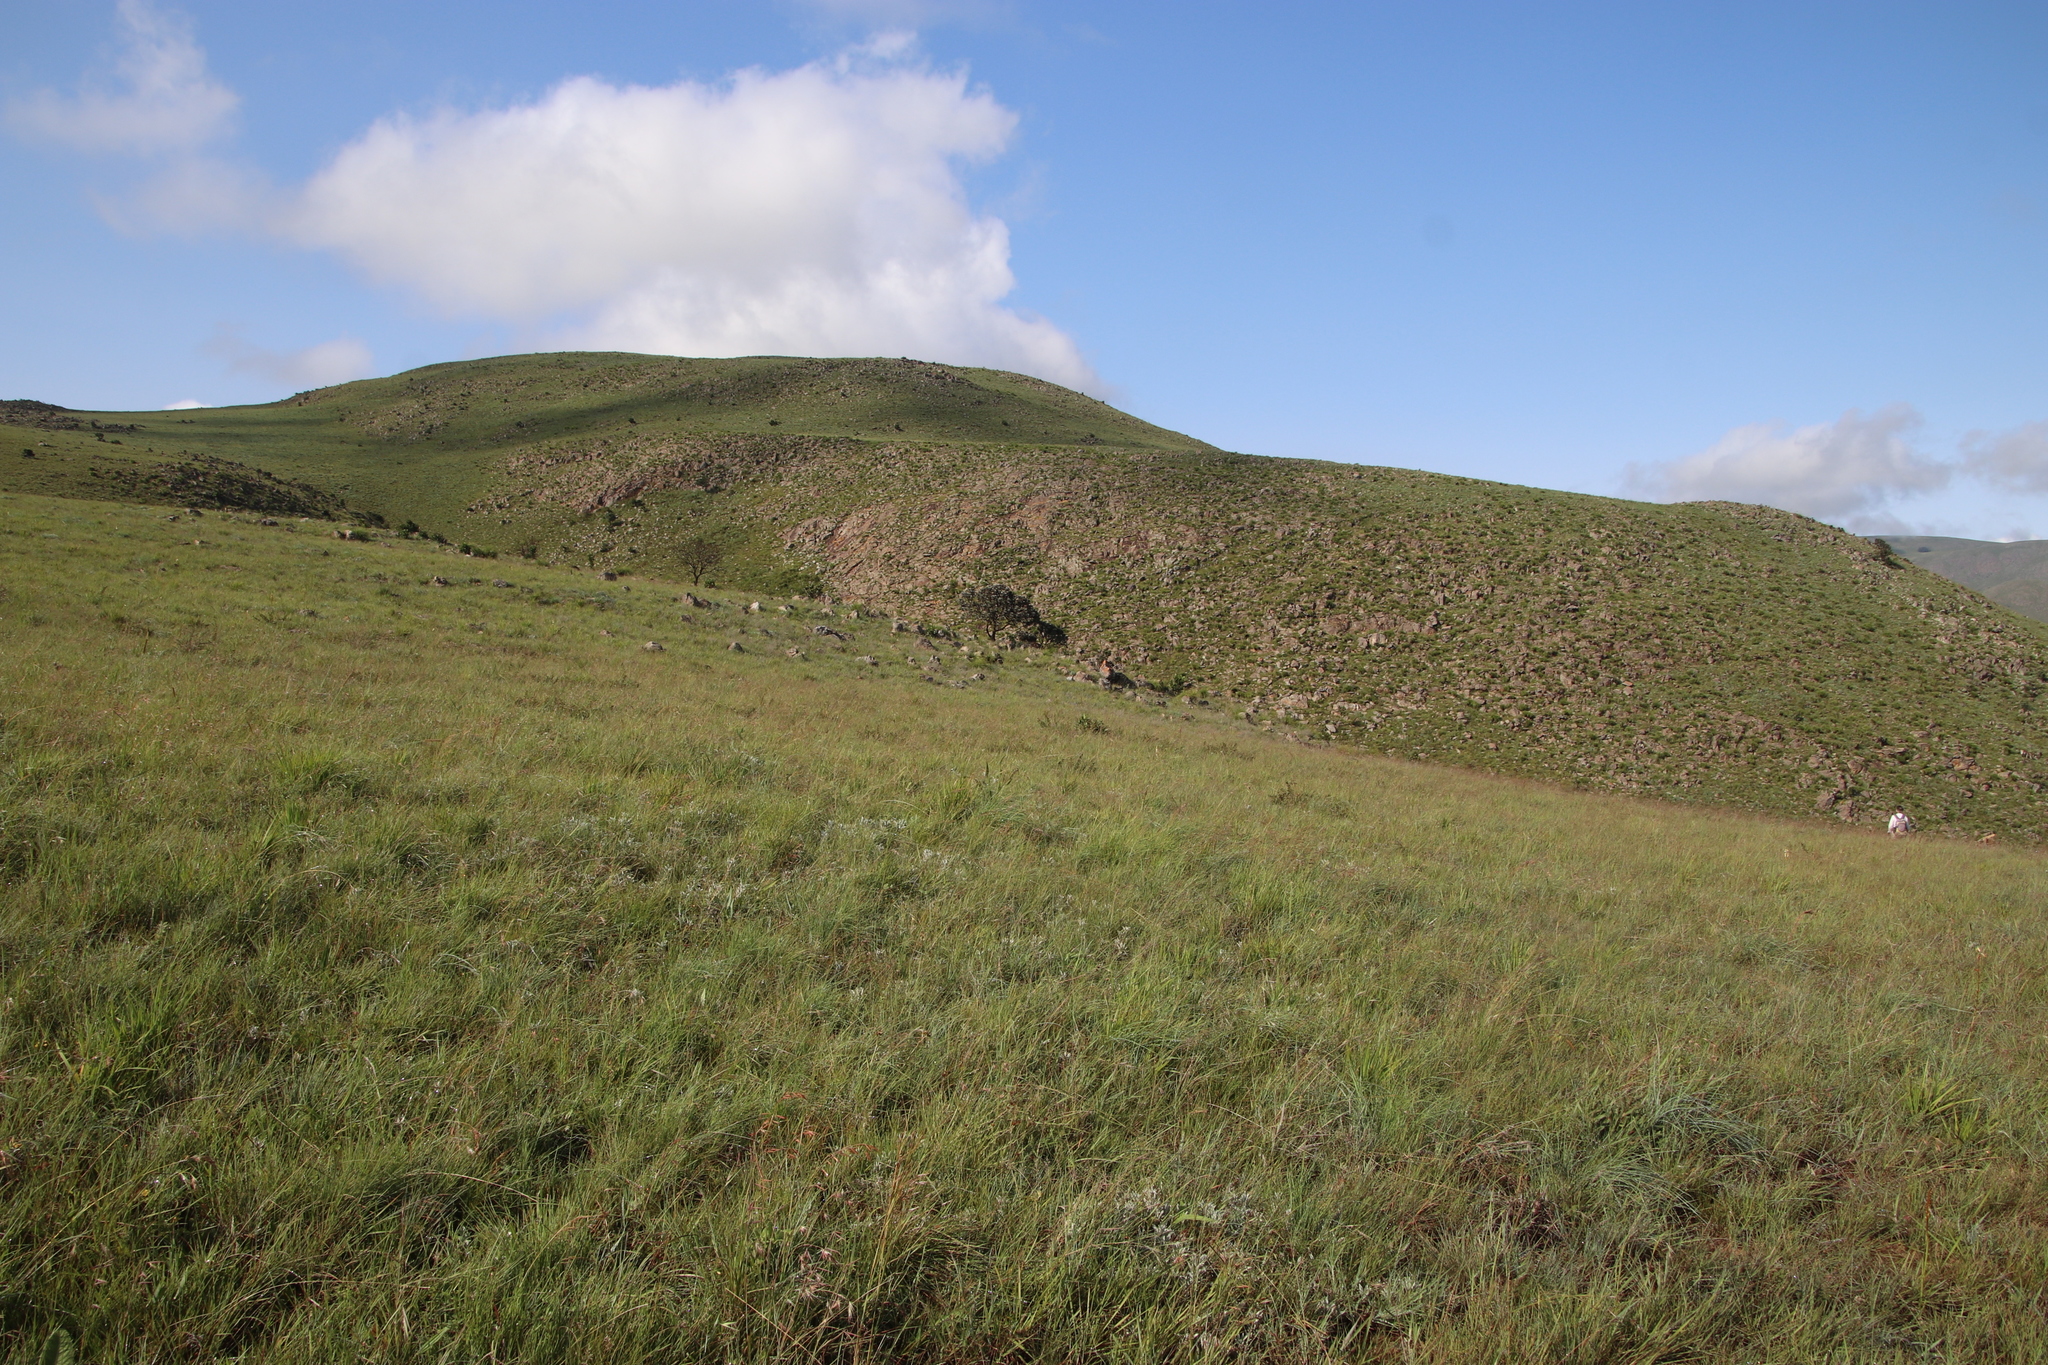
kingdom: Animalia
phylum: Chordata
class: Mammalia
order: Perissodactyla
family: Equidae
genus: Equus
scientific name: Equus quagga
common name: Plains zebra
